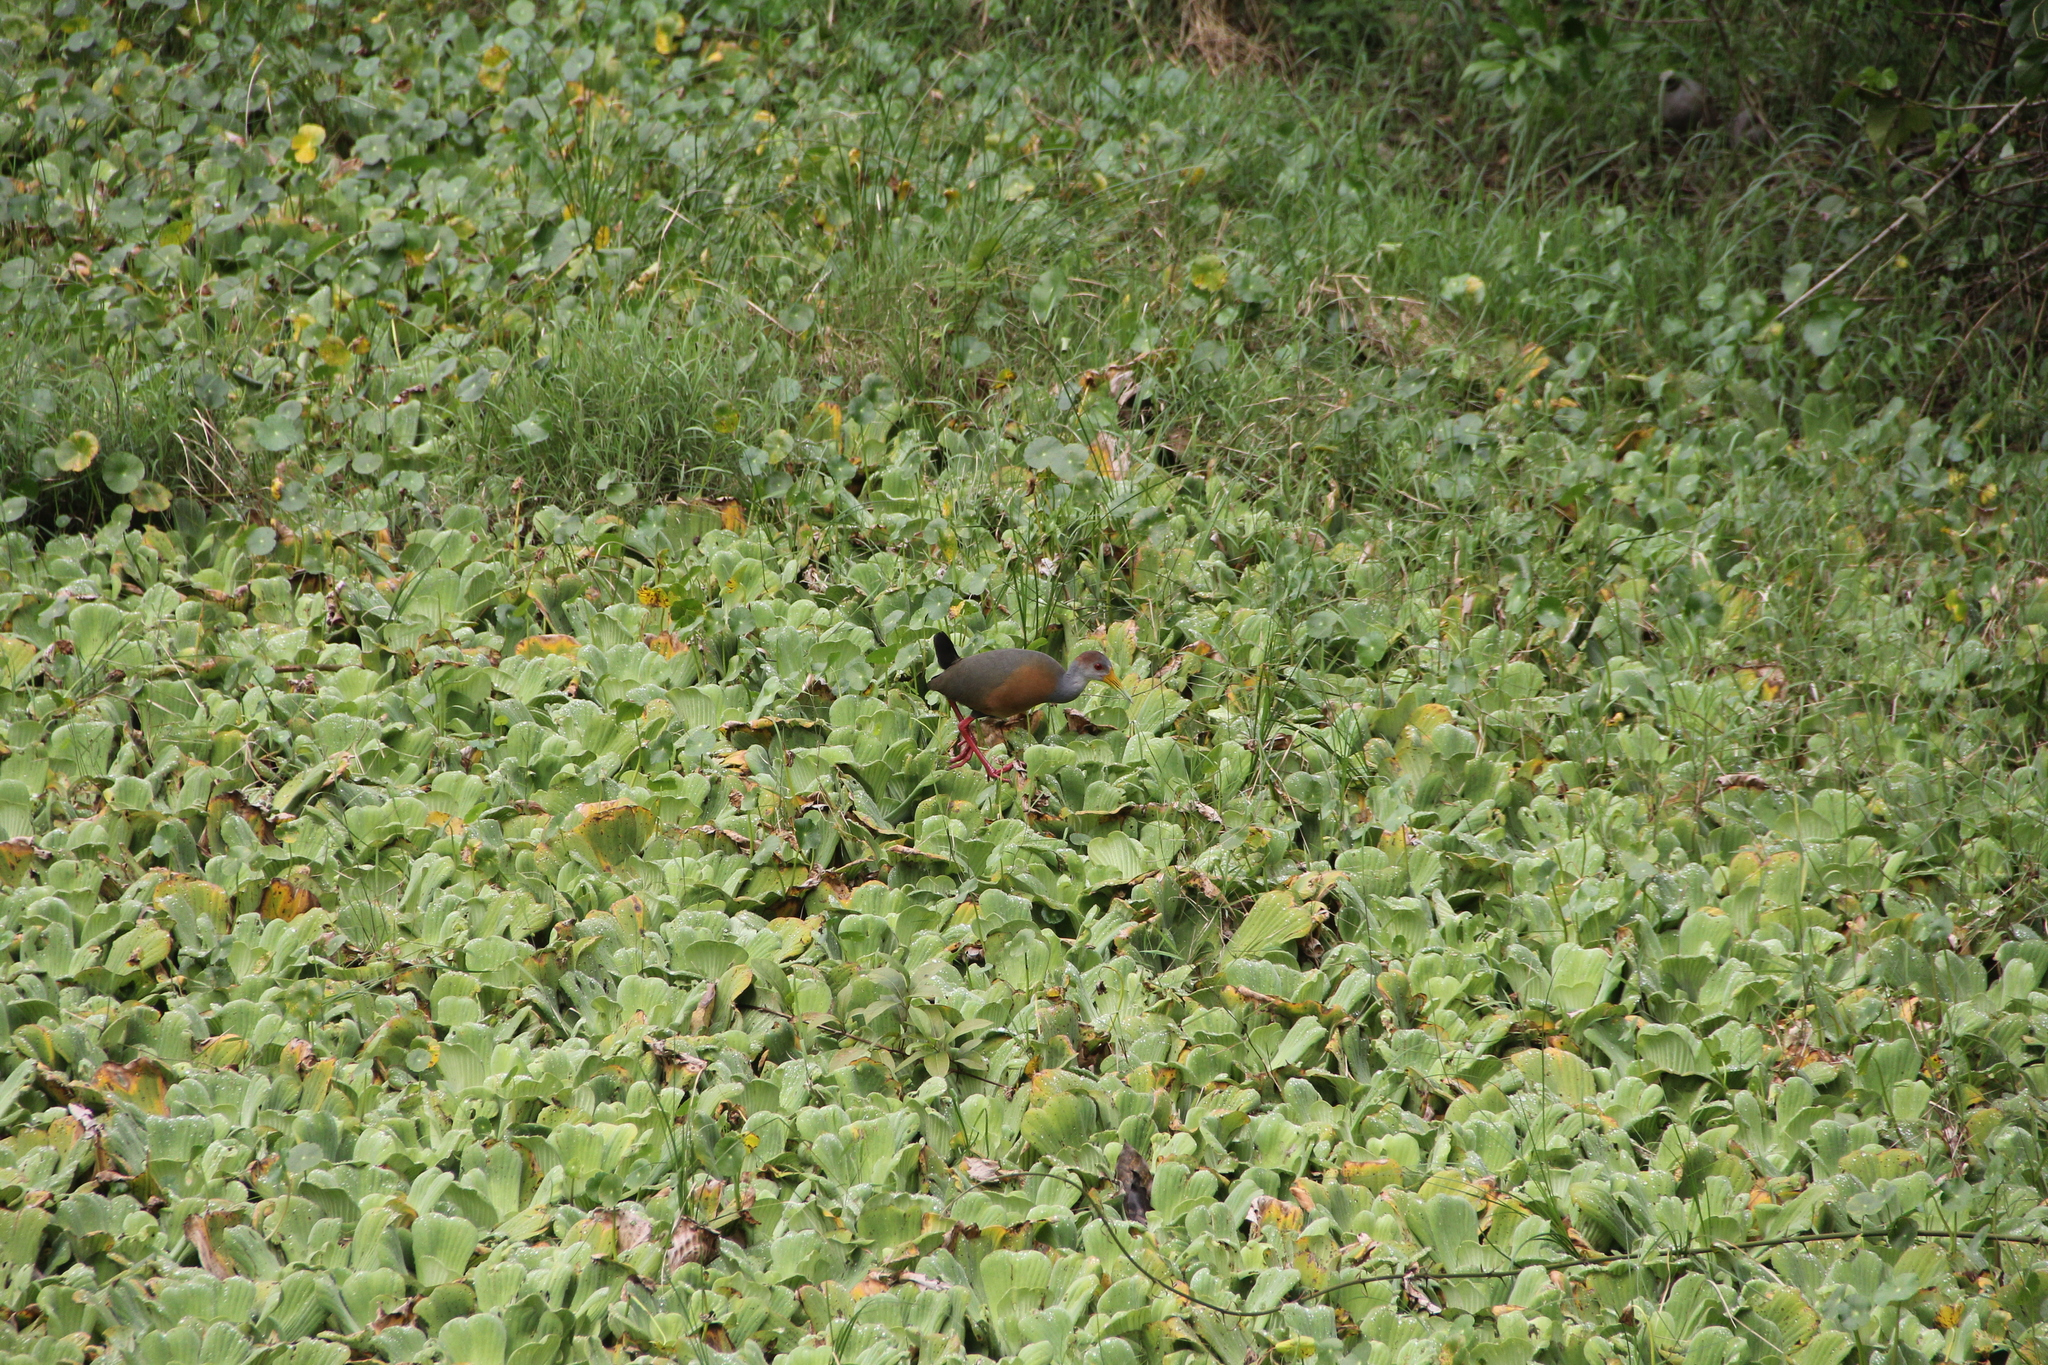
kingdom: Animalia
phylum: Chordata
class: Aves
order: Gruiformes
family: Rallidae
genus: Aramides
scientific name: Aramides albiventris
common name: Russet-naped wood-rail
